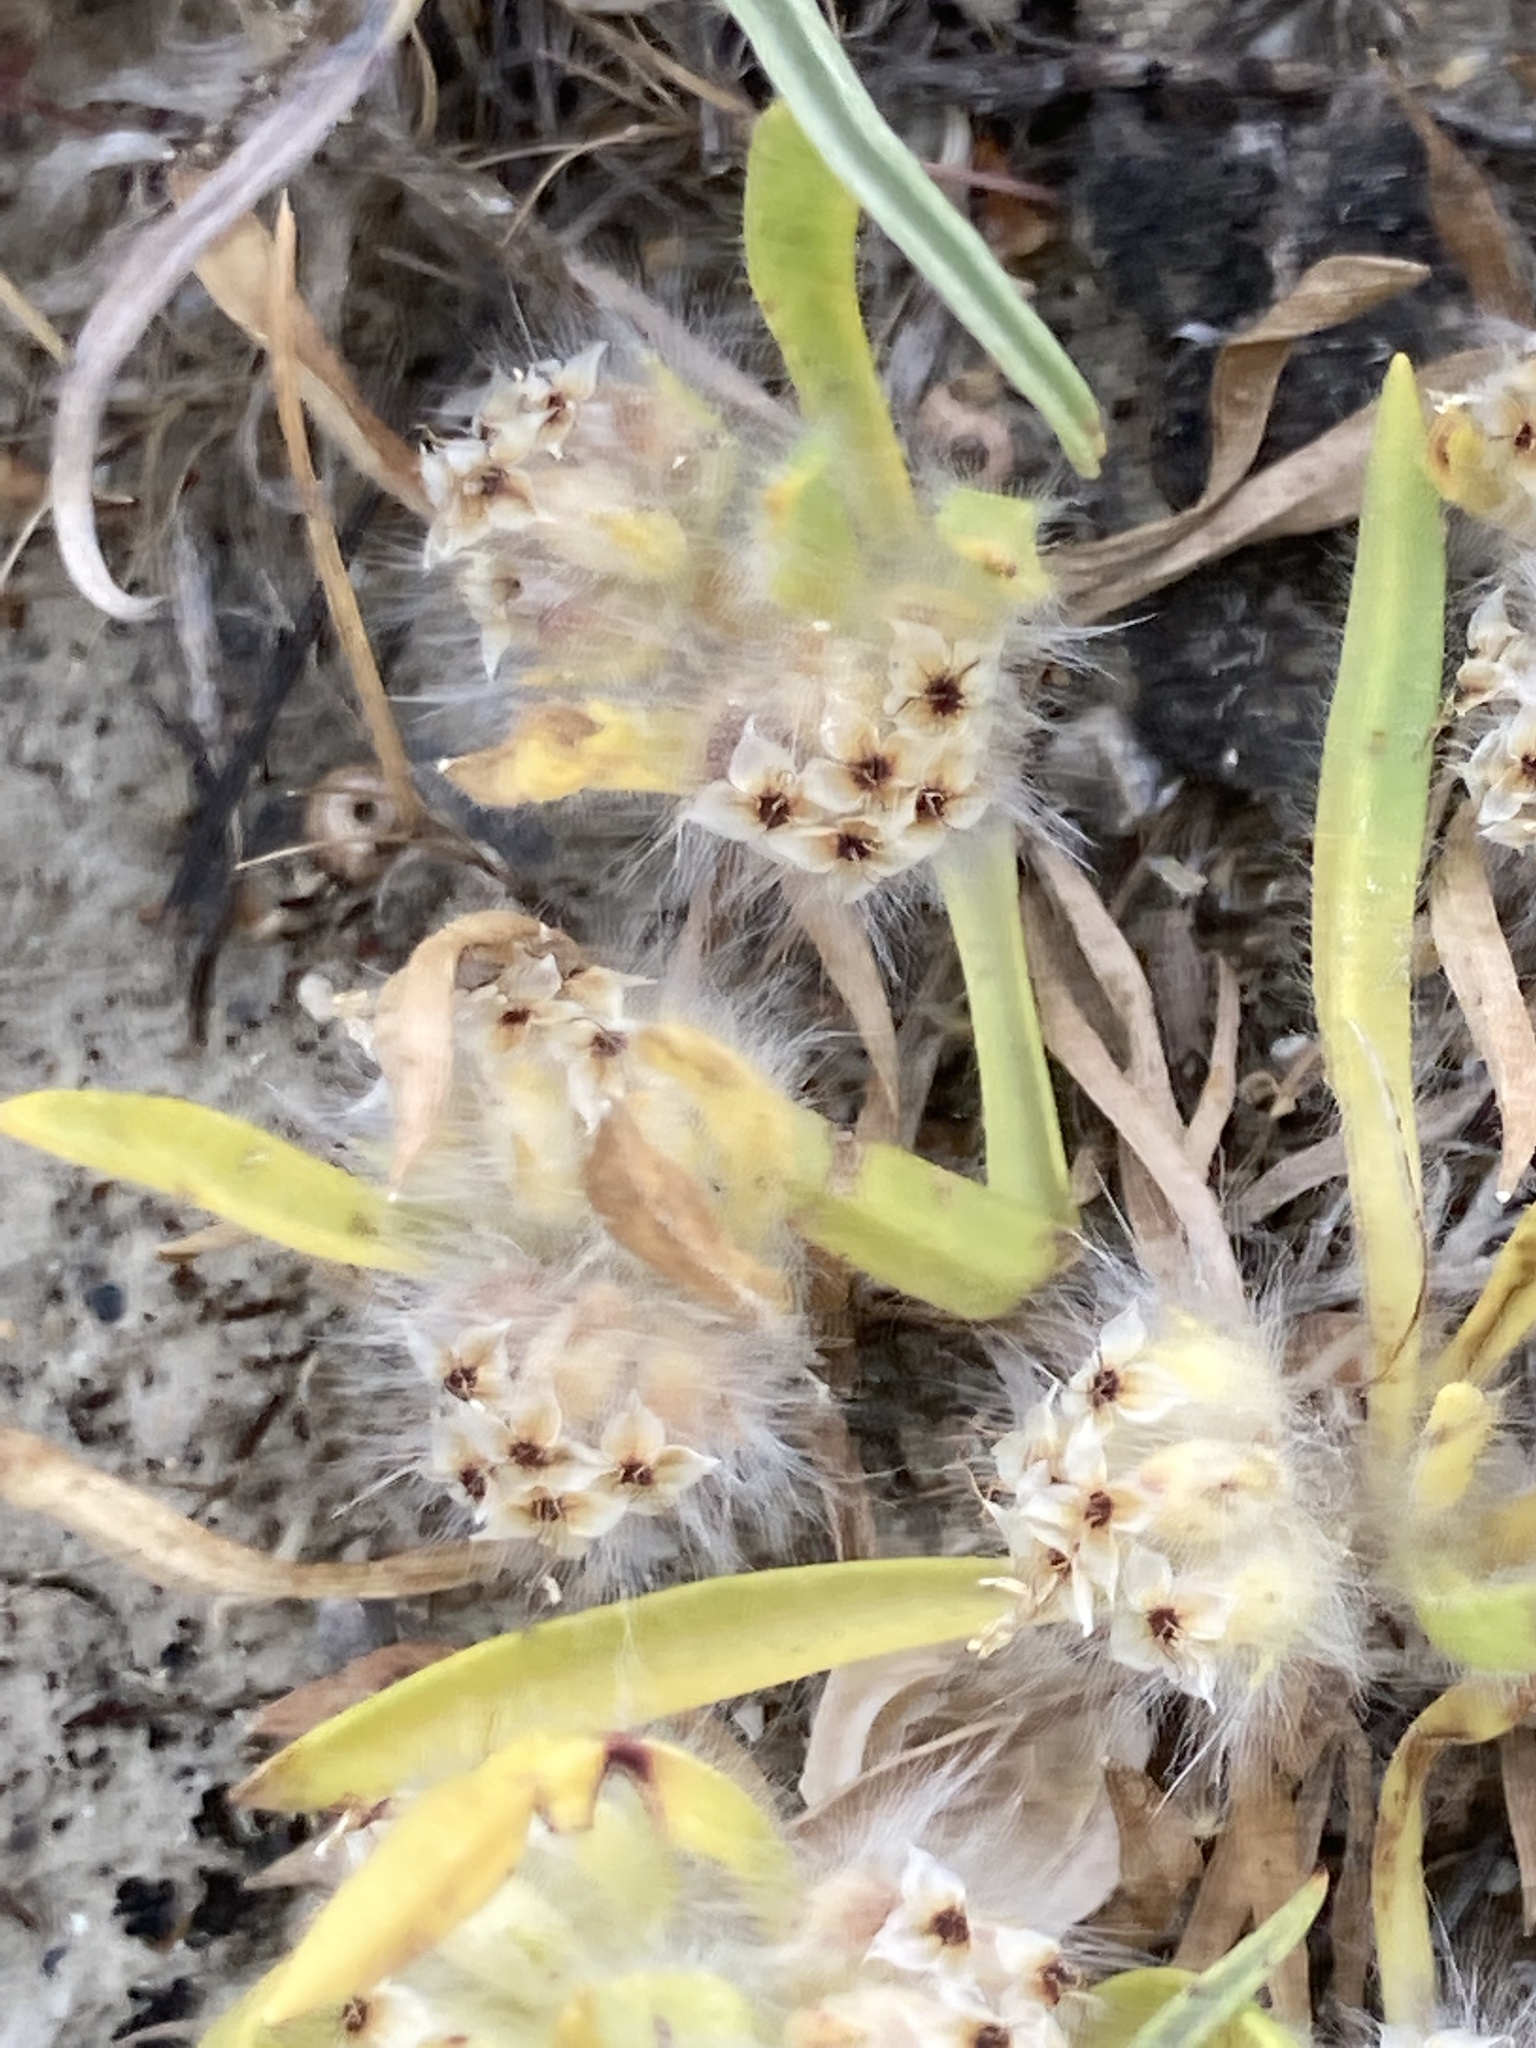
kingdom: Plantae
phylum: Tracheophyta
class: Magnoliopsida
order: Lamiales
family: Plantaginaceae
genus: Plantago
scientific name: Plantago cretica
